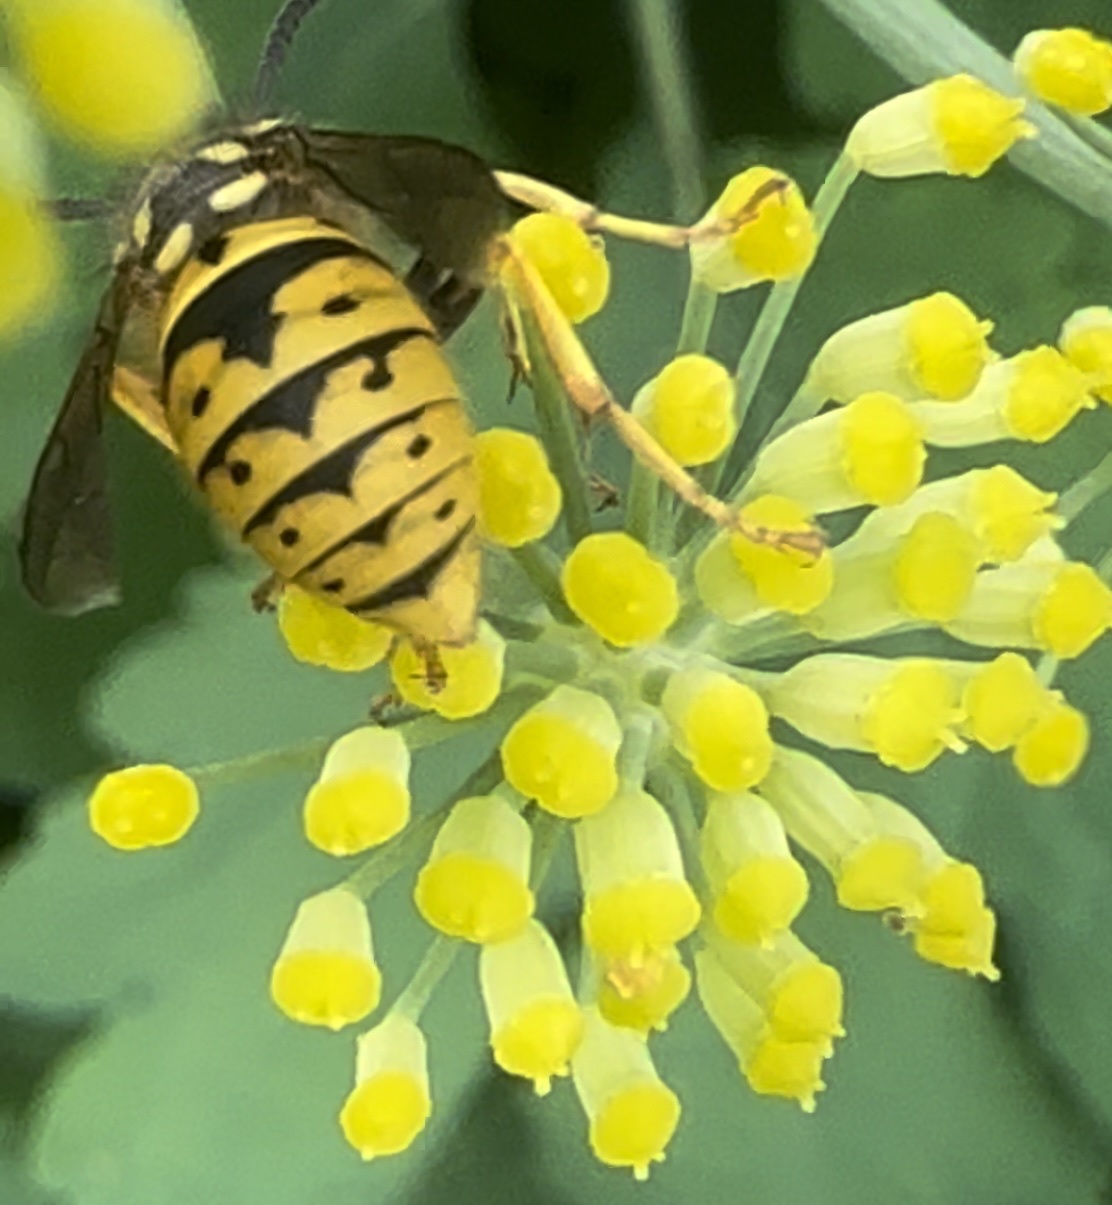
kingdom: Animalia
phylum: Arthropoda
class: Insecta
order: Hymenoptera
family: Vespidae
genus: Vespula
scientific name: Vespula germanica
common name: German wasp
